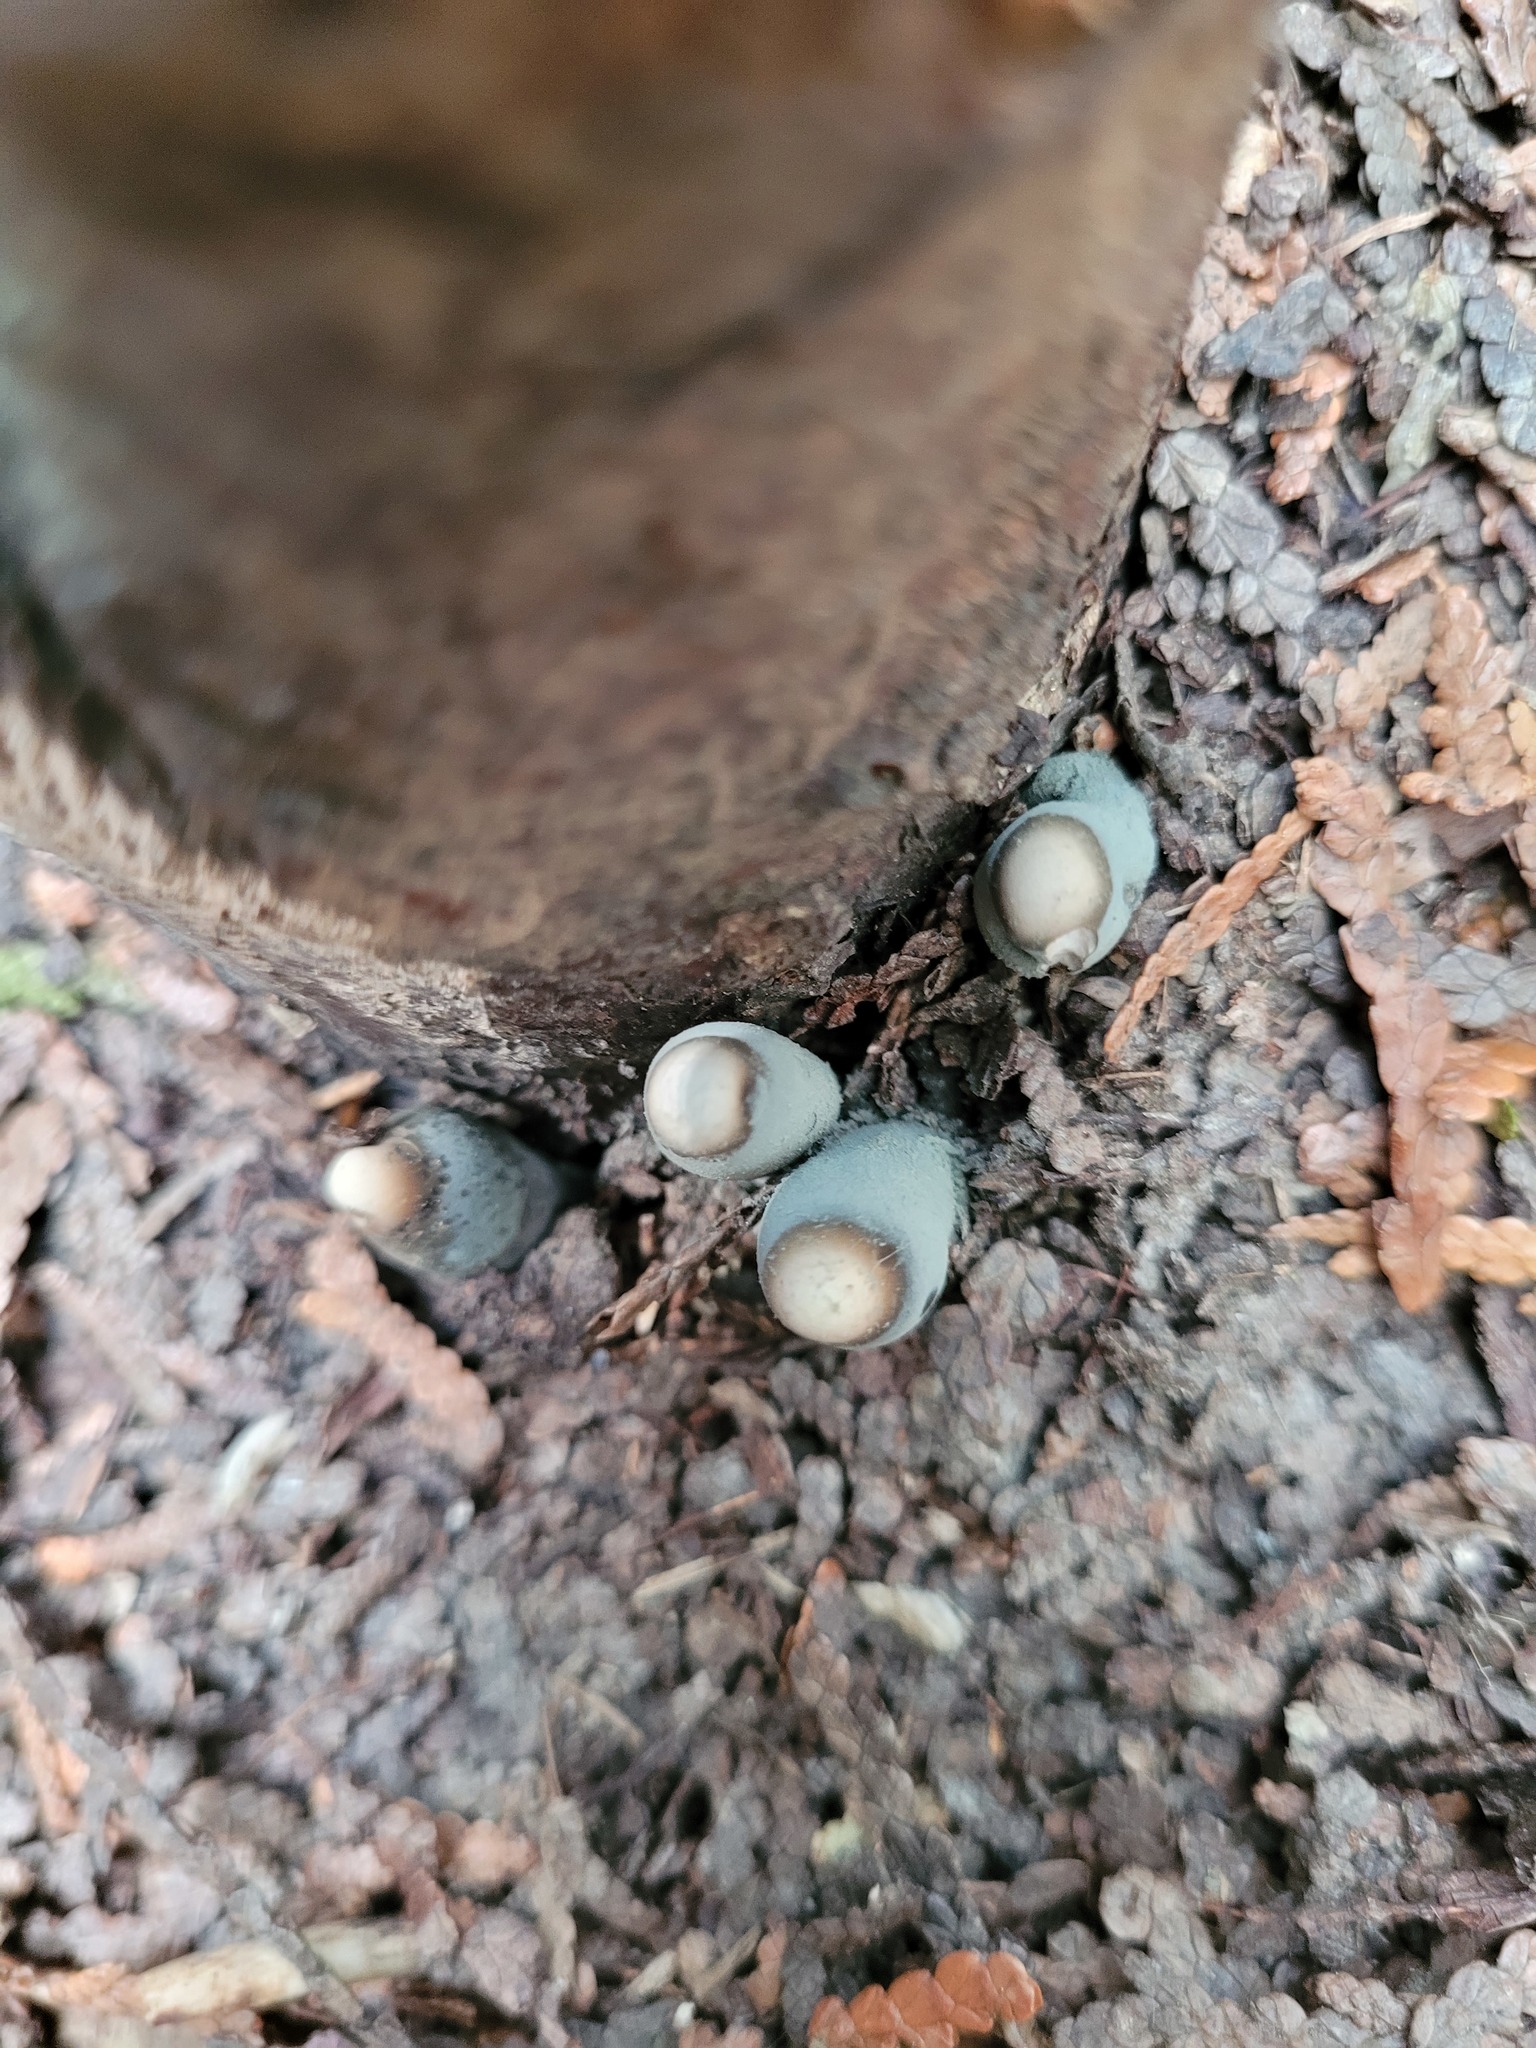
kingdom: Fungi
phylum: Ascomycota
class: Sordariomycetes
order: Xylariales
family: Xylariaceae
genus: Xylaria
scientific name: Xylaria polymorpha
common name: Dead man's fingers
